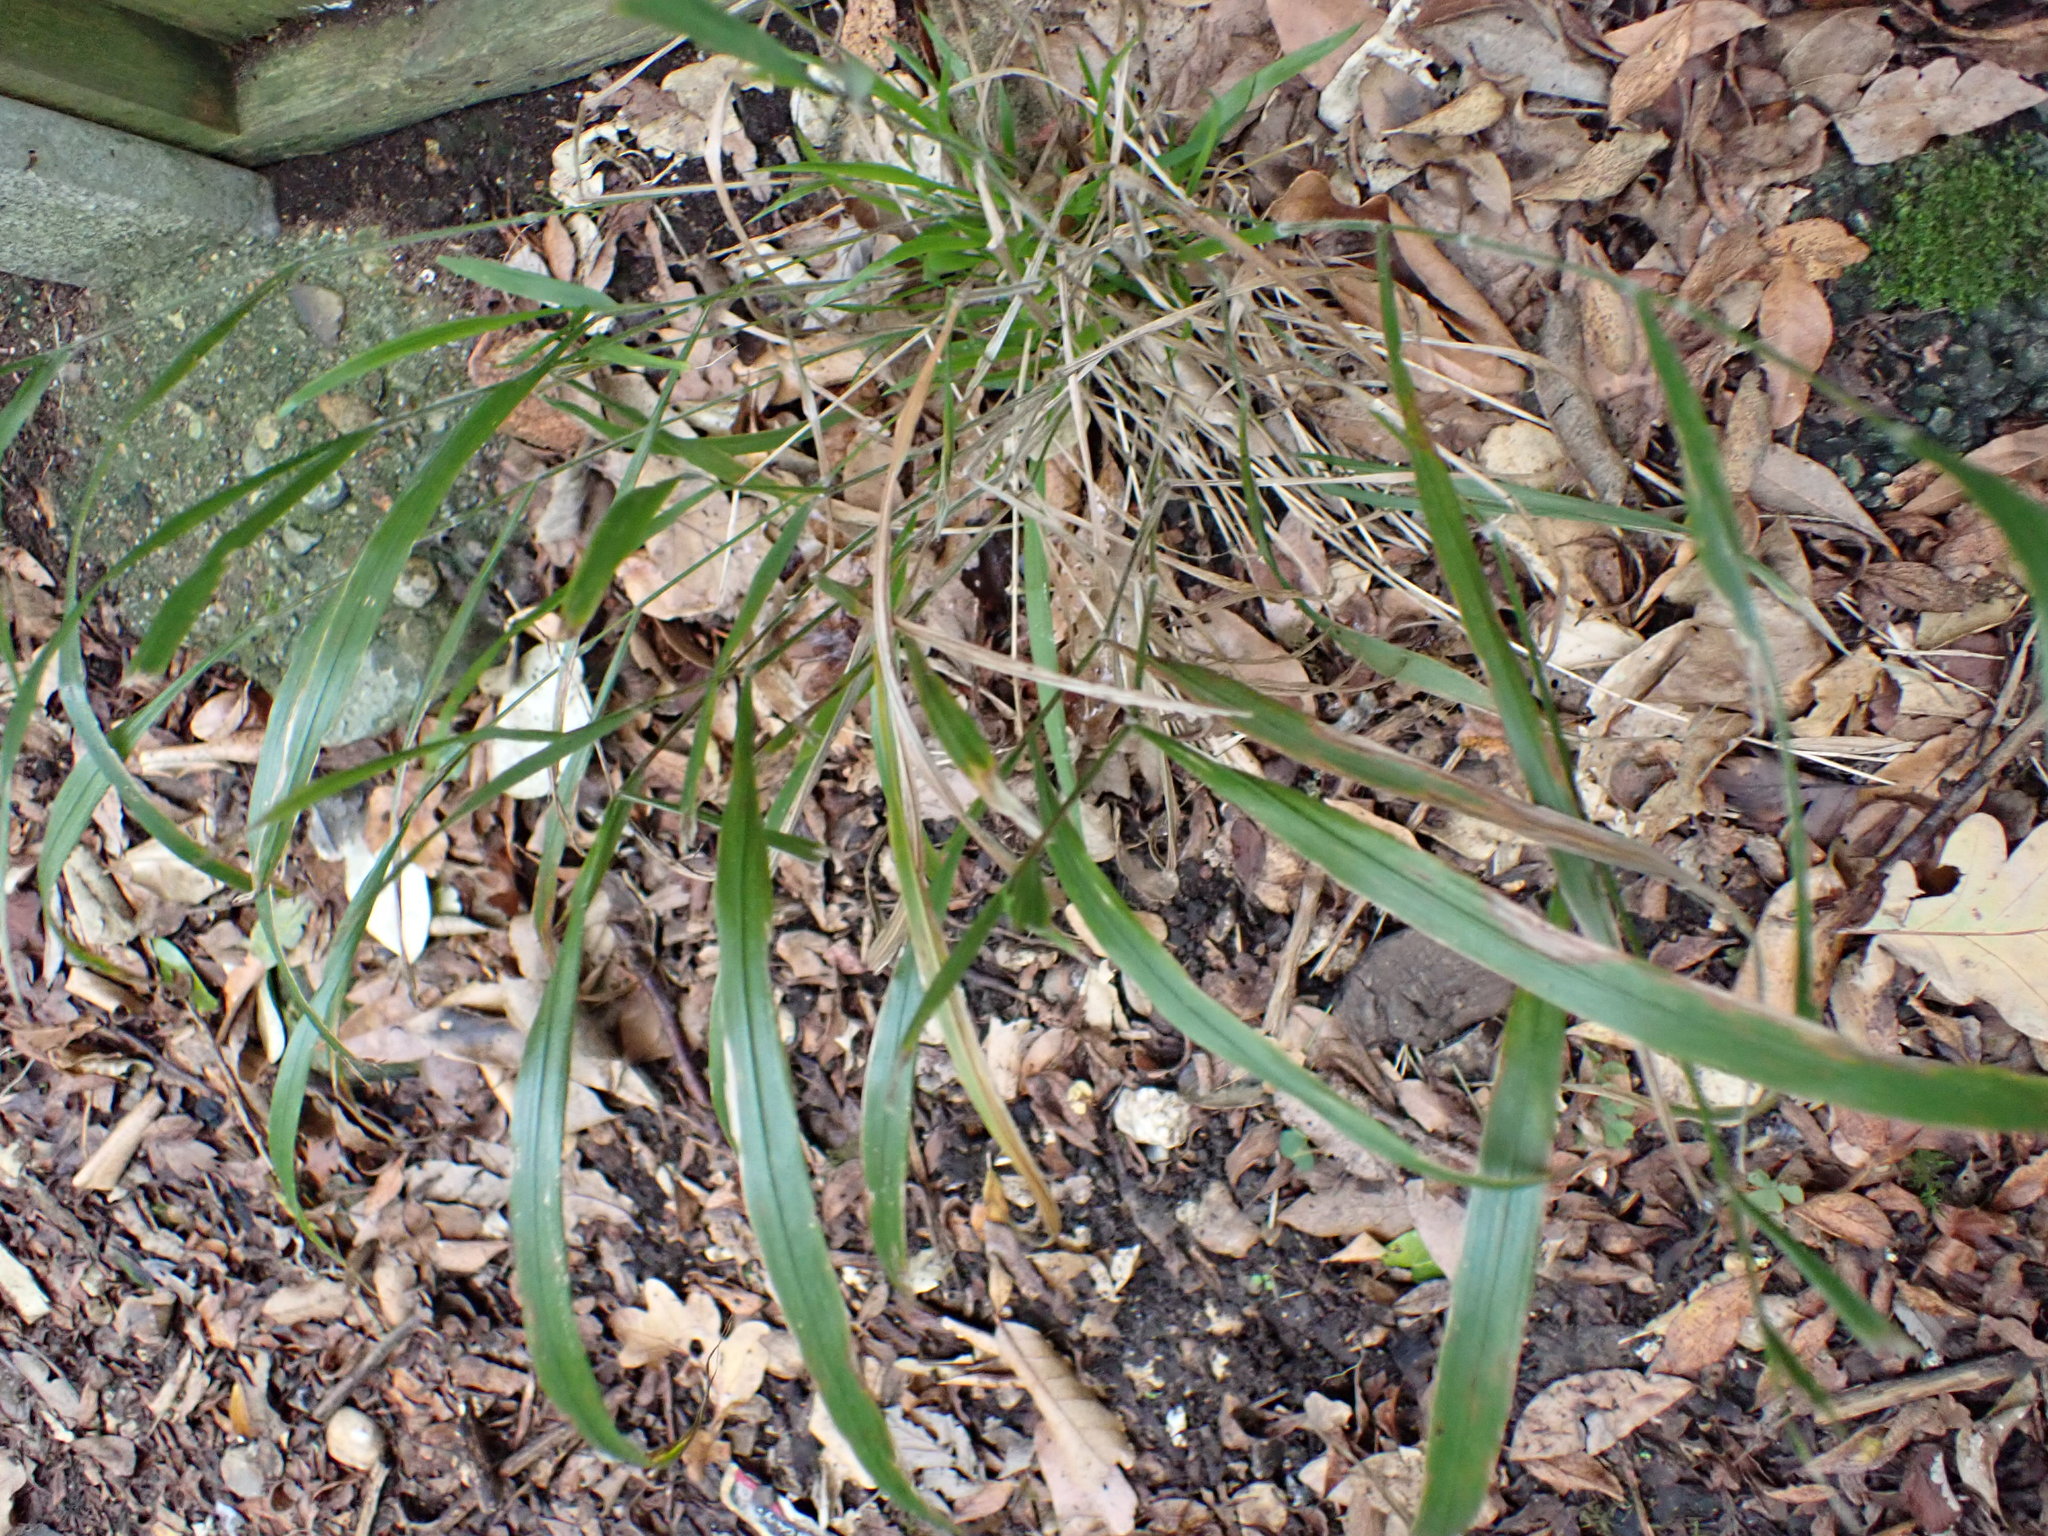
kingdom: Plantae
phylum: Tracheophyta
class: Liliopsida
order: Poales
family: Poaceae
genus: Brachypodium
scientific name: Brachypodium sylvaticum
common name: False-brome
